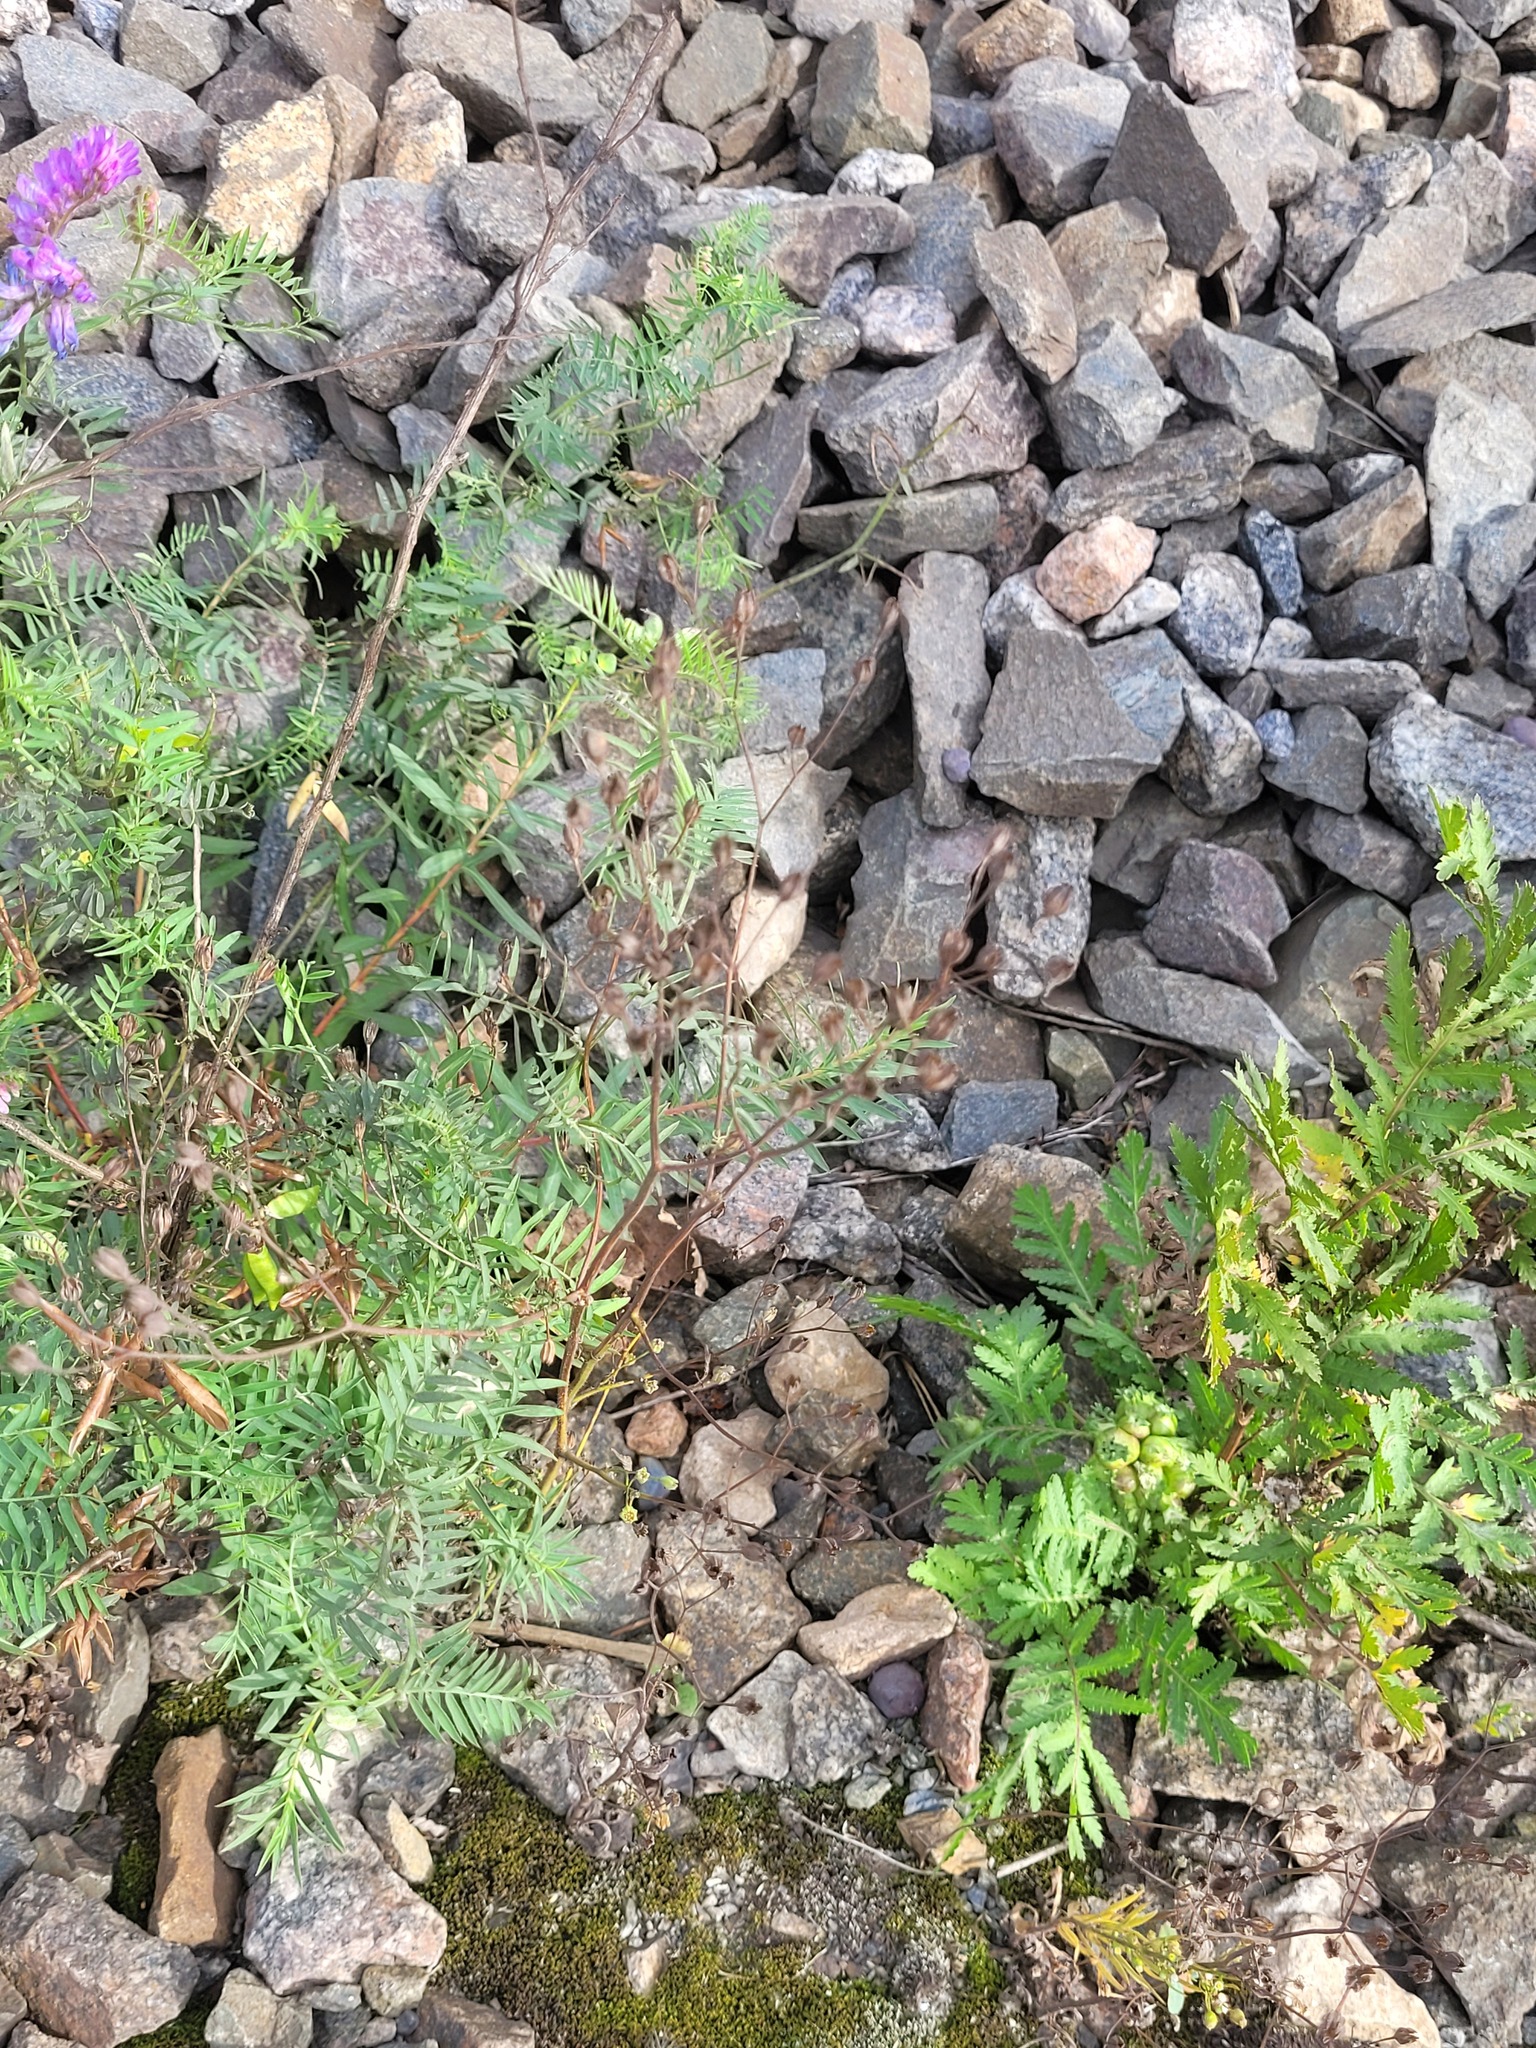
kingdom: Plantae
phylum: Tracheophyta
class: Magnoliopsida
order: Asterales
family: Asteraceae
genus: Lapsana
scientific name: Lapsana communis
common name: Nipplewort
